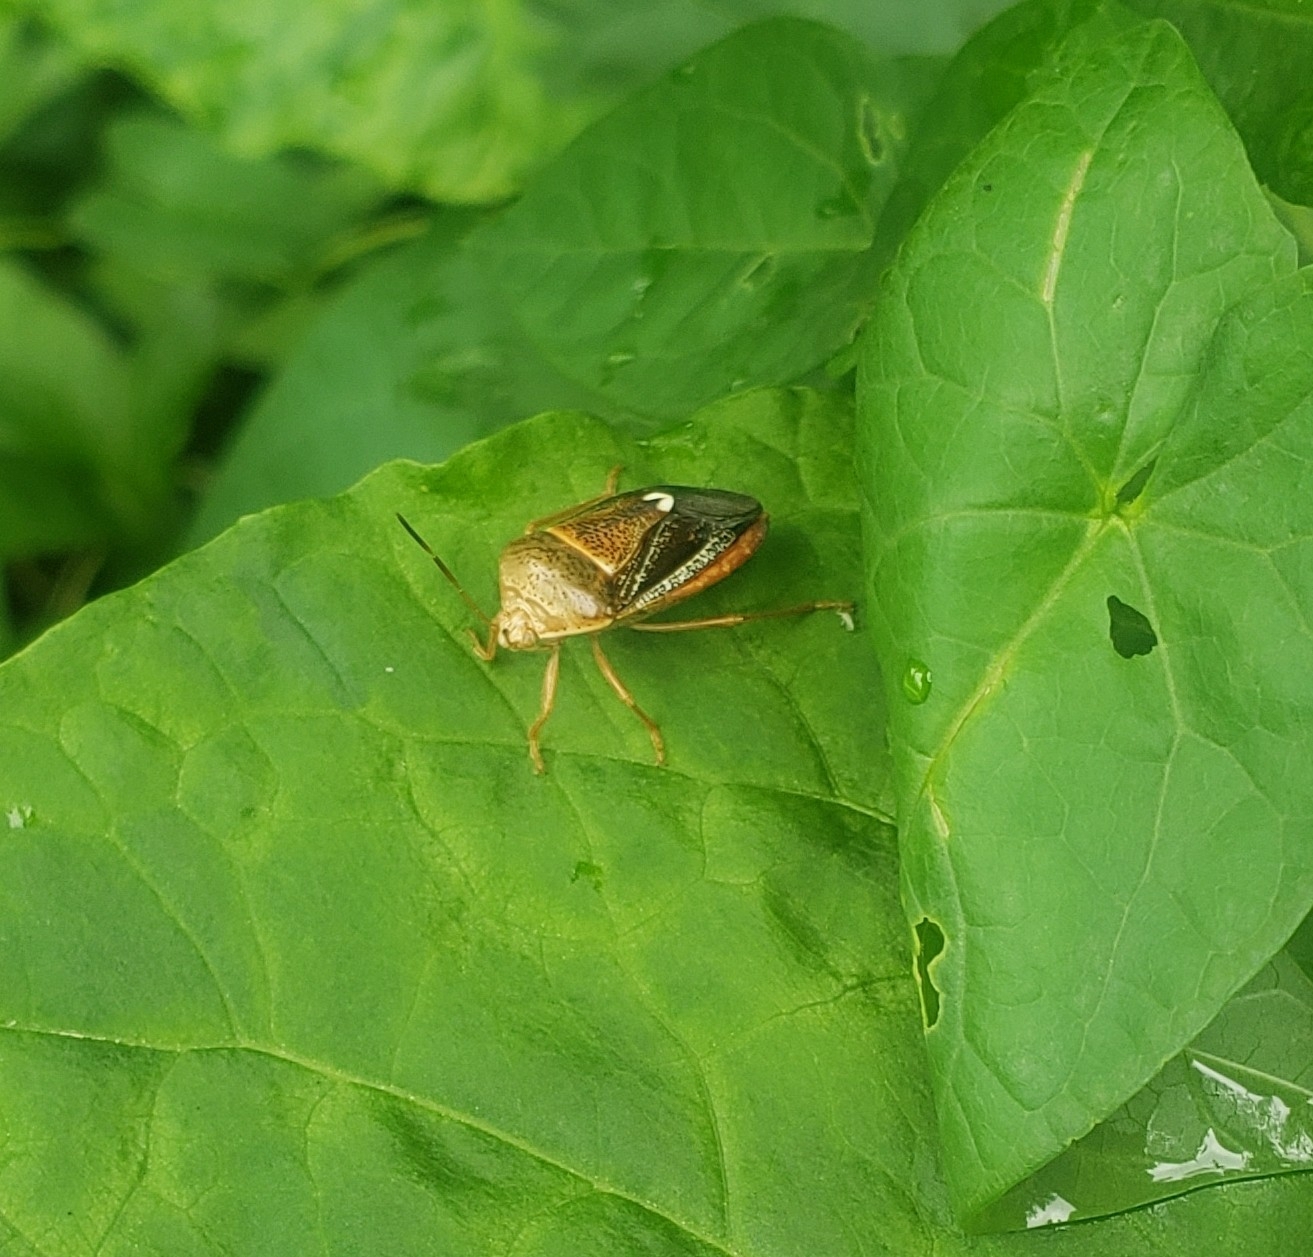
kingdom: Animalia
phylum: Arthropoda
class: Insecta
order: Hemiptera
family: Pentatomidae
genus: Edessa
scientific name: Edessa bifida
